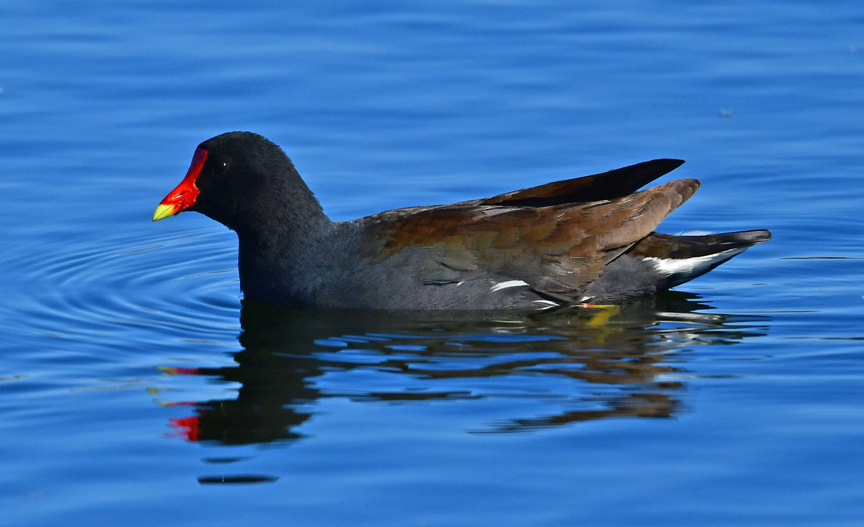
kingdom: Animalia
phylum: Chordata
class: Aves
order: Gruiformes
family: Rallidae
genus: Gallinula
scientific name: Gallinula chloropus
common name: Common moorhen
